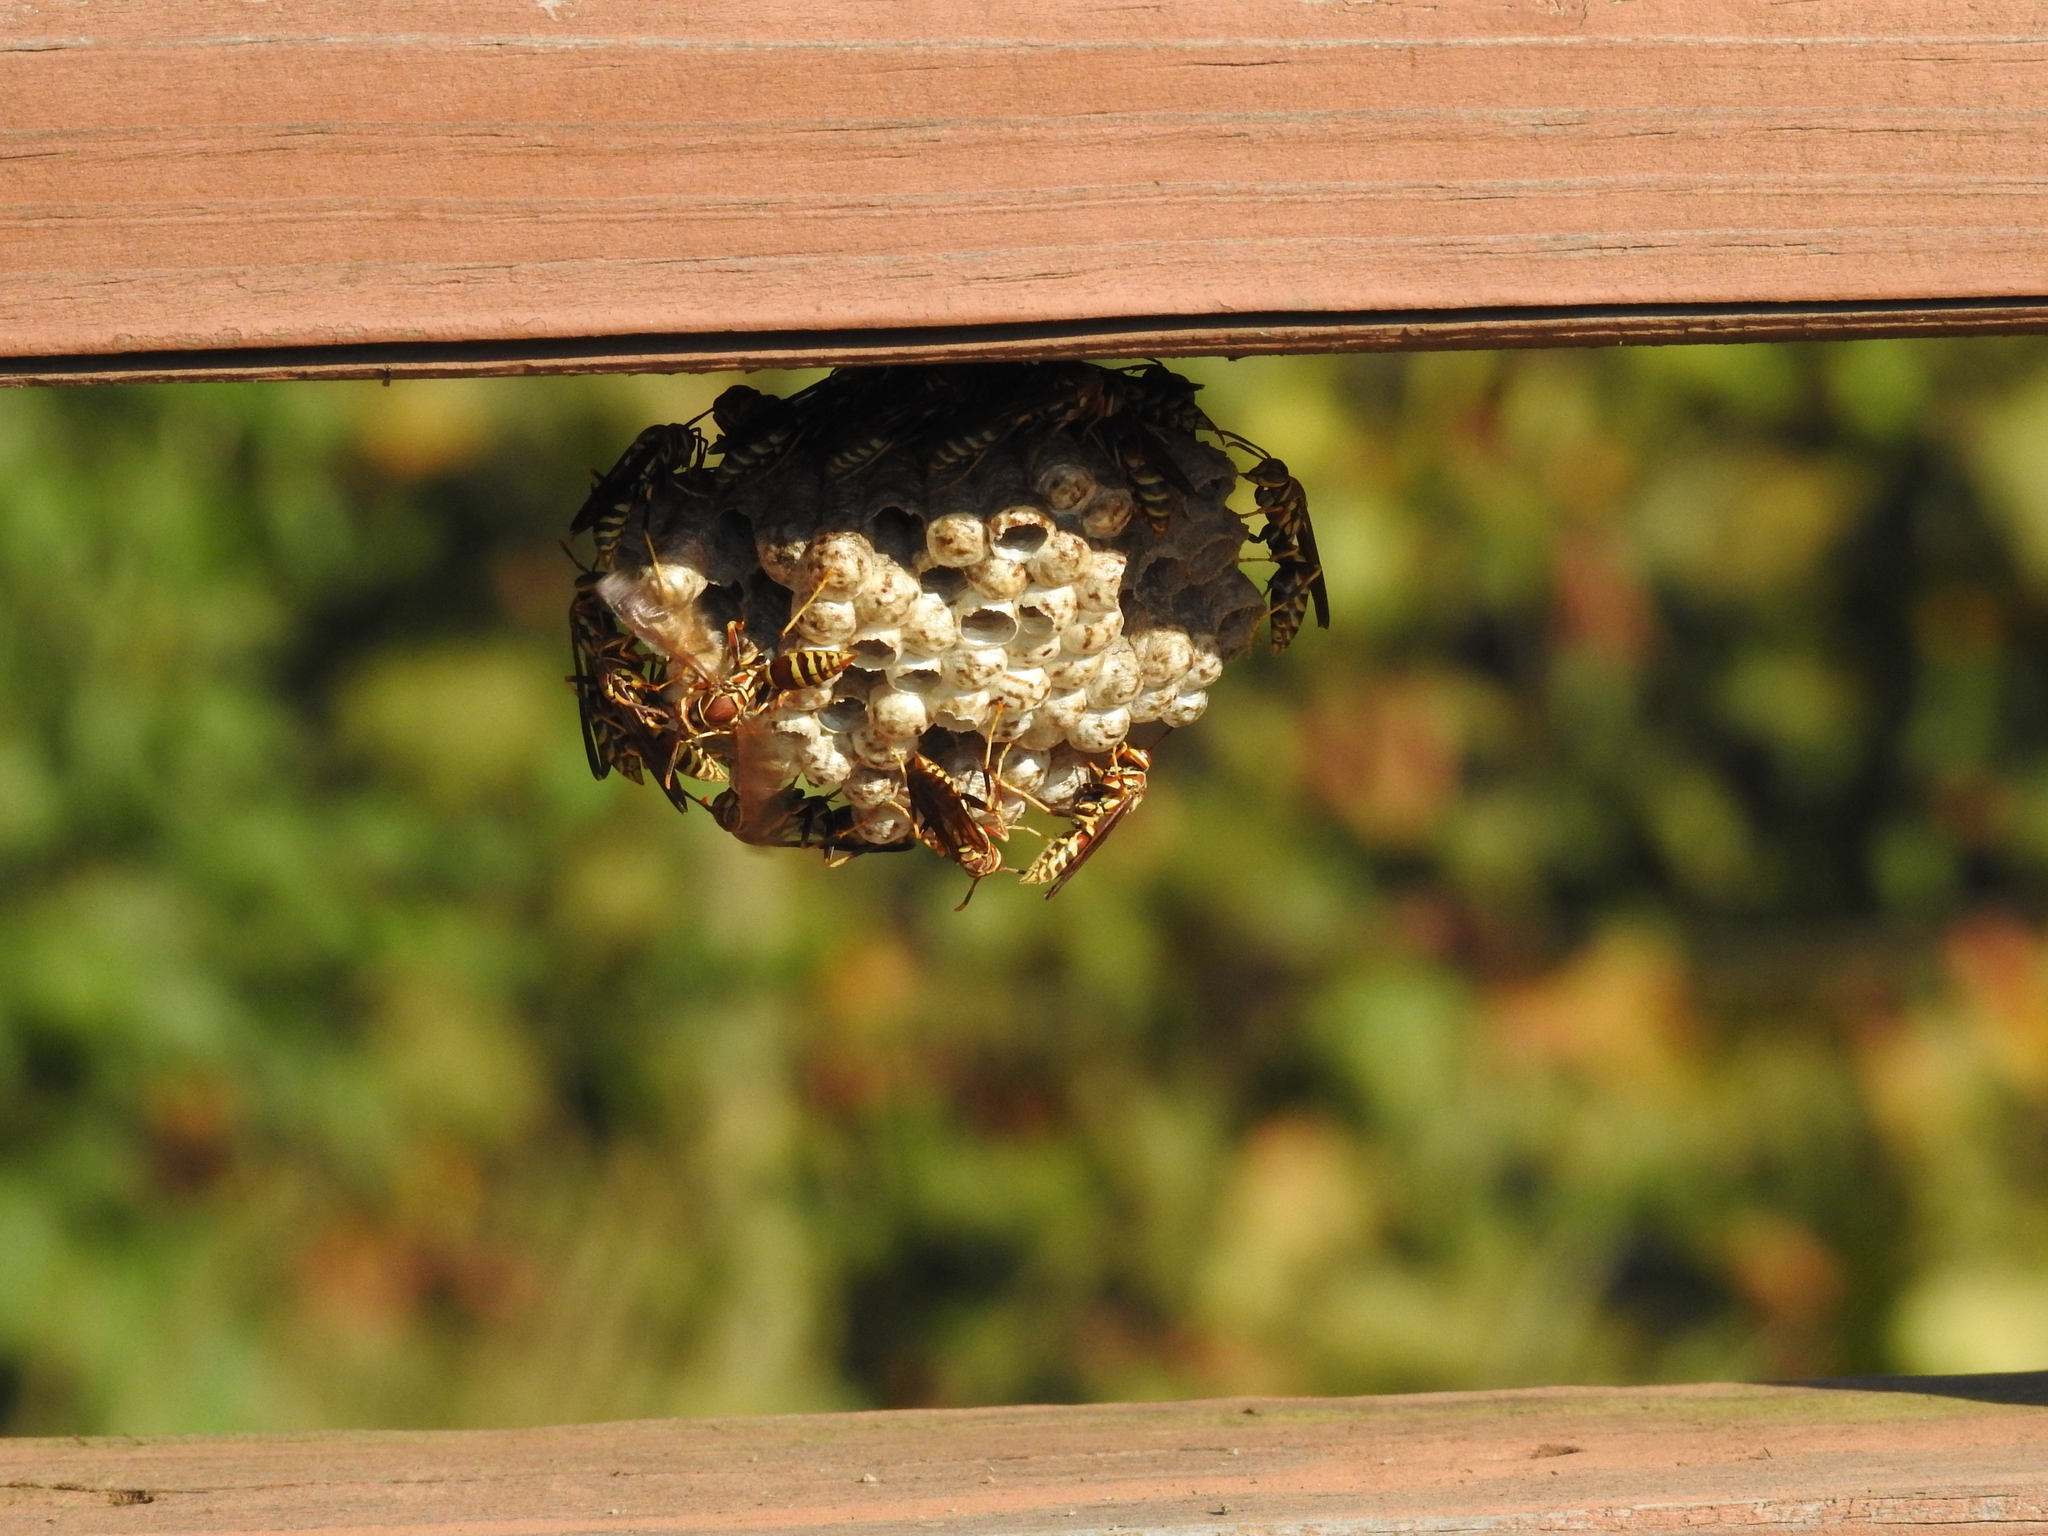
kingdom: Animalia
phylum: Arthropoda
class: Insecta
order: Hymenoptera
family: Eumenidae
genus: Polistes
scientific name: Polistes exclamans
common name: Paper wasp
